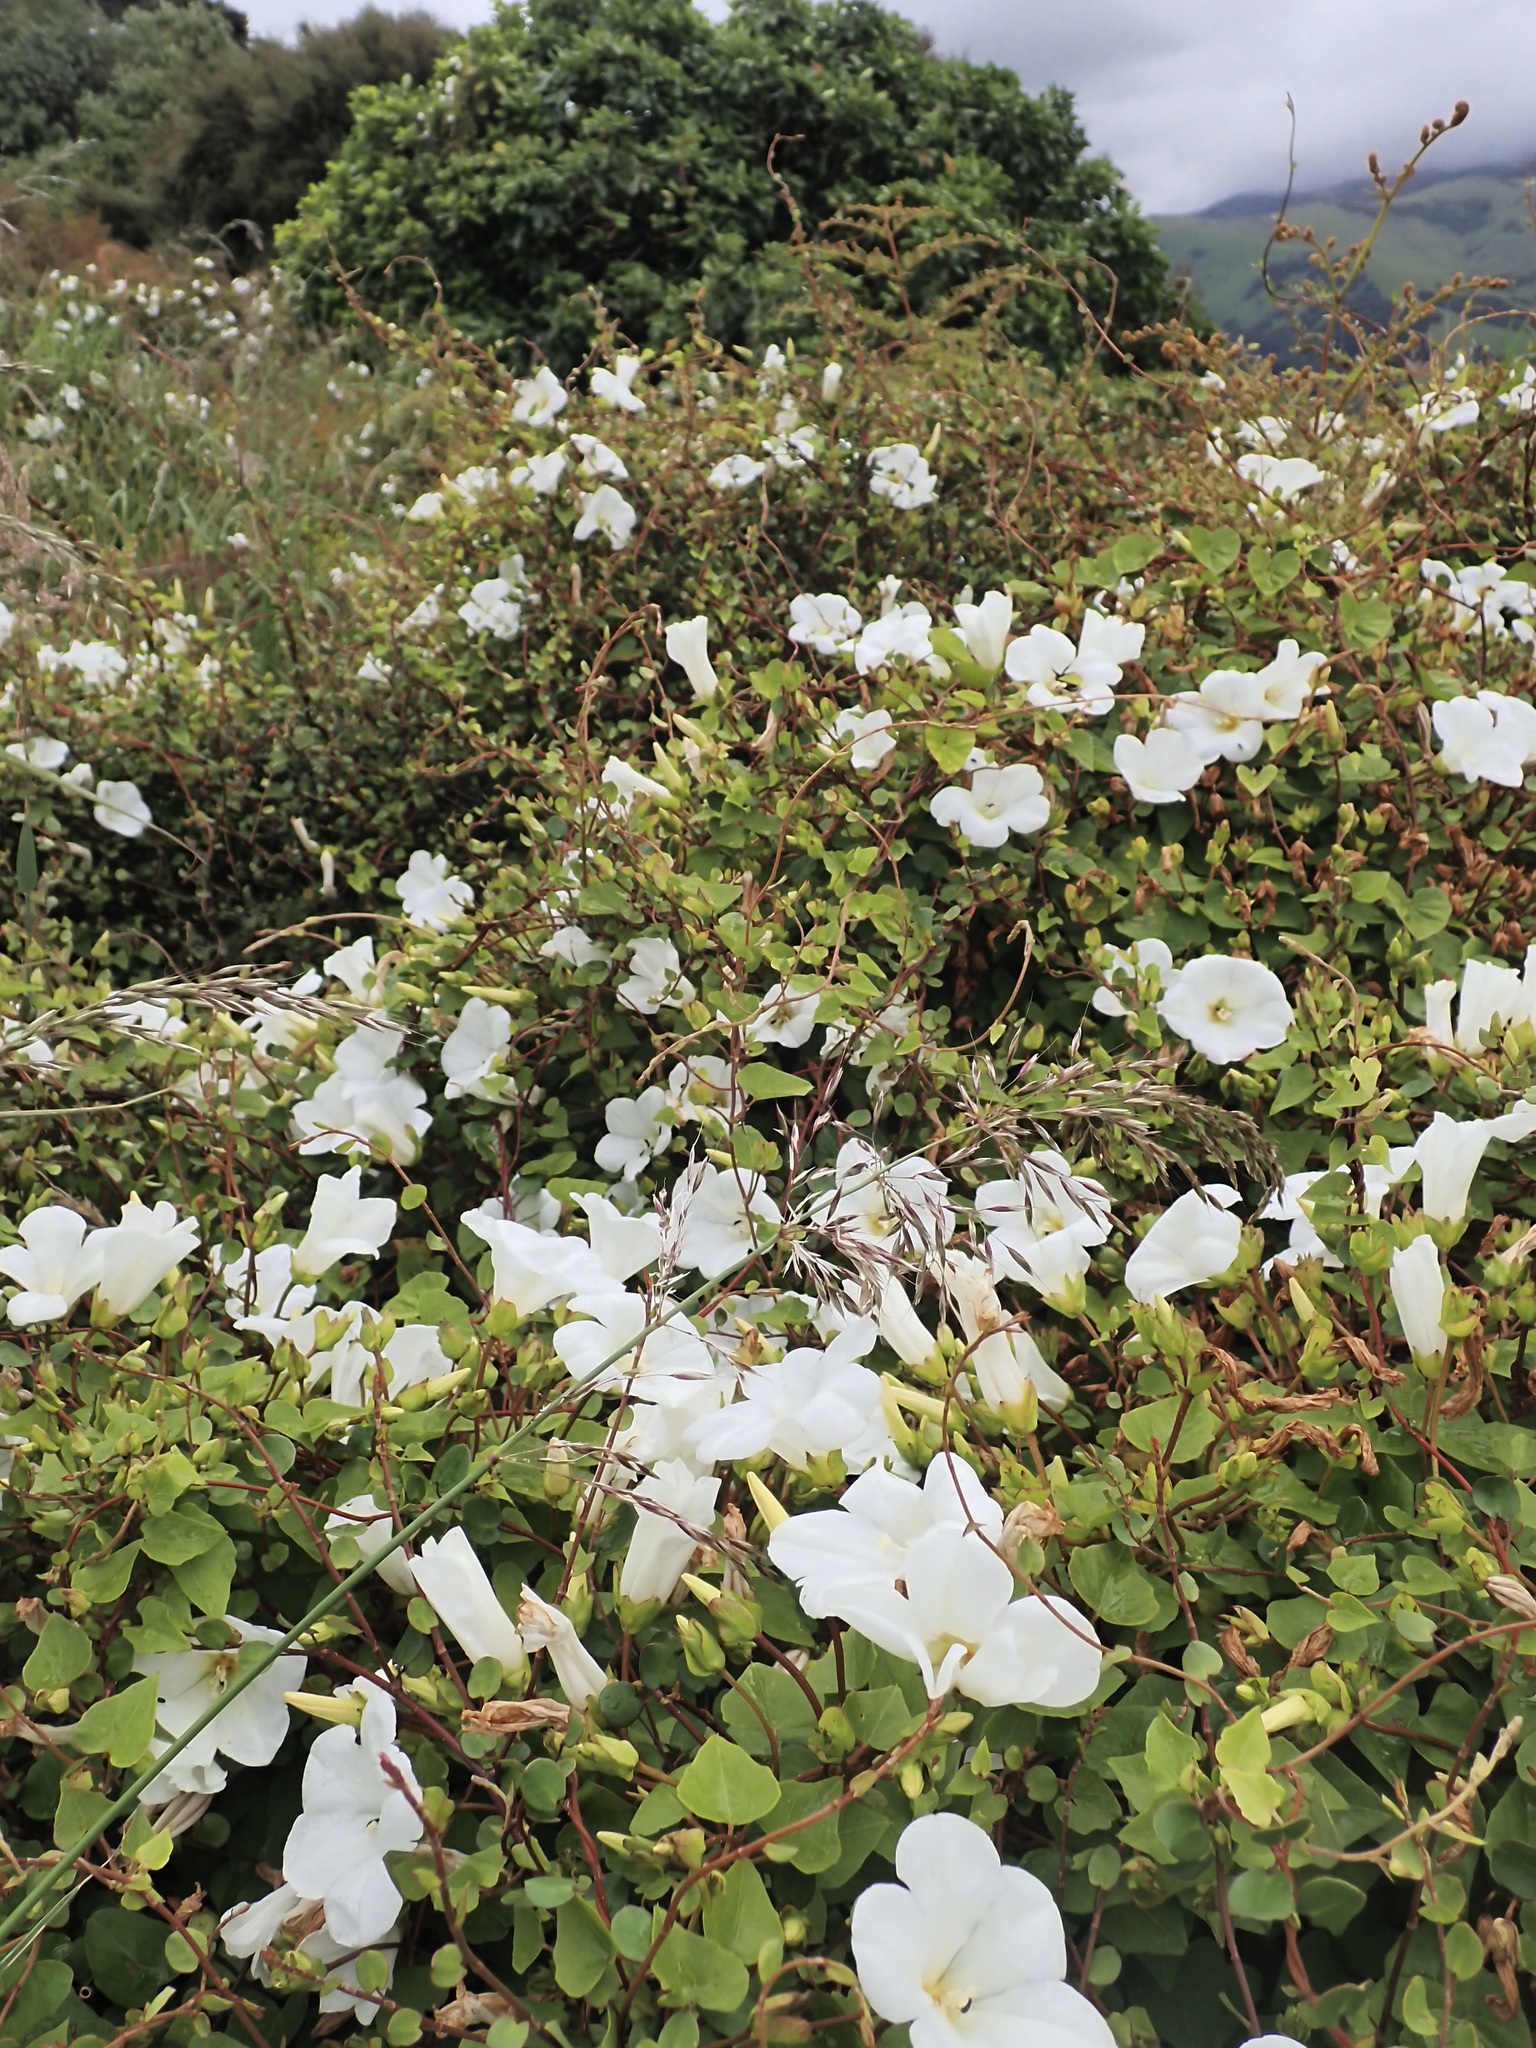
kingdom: Plantae
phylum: Tracheophyta
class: Magnoliopsida
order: Solanales
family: Convolvulaceae
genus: Calystegia
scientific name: Calystegia tuguriorum
